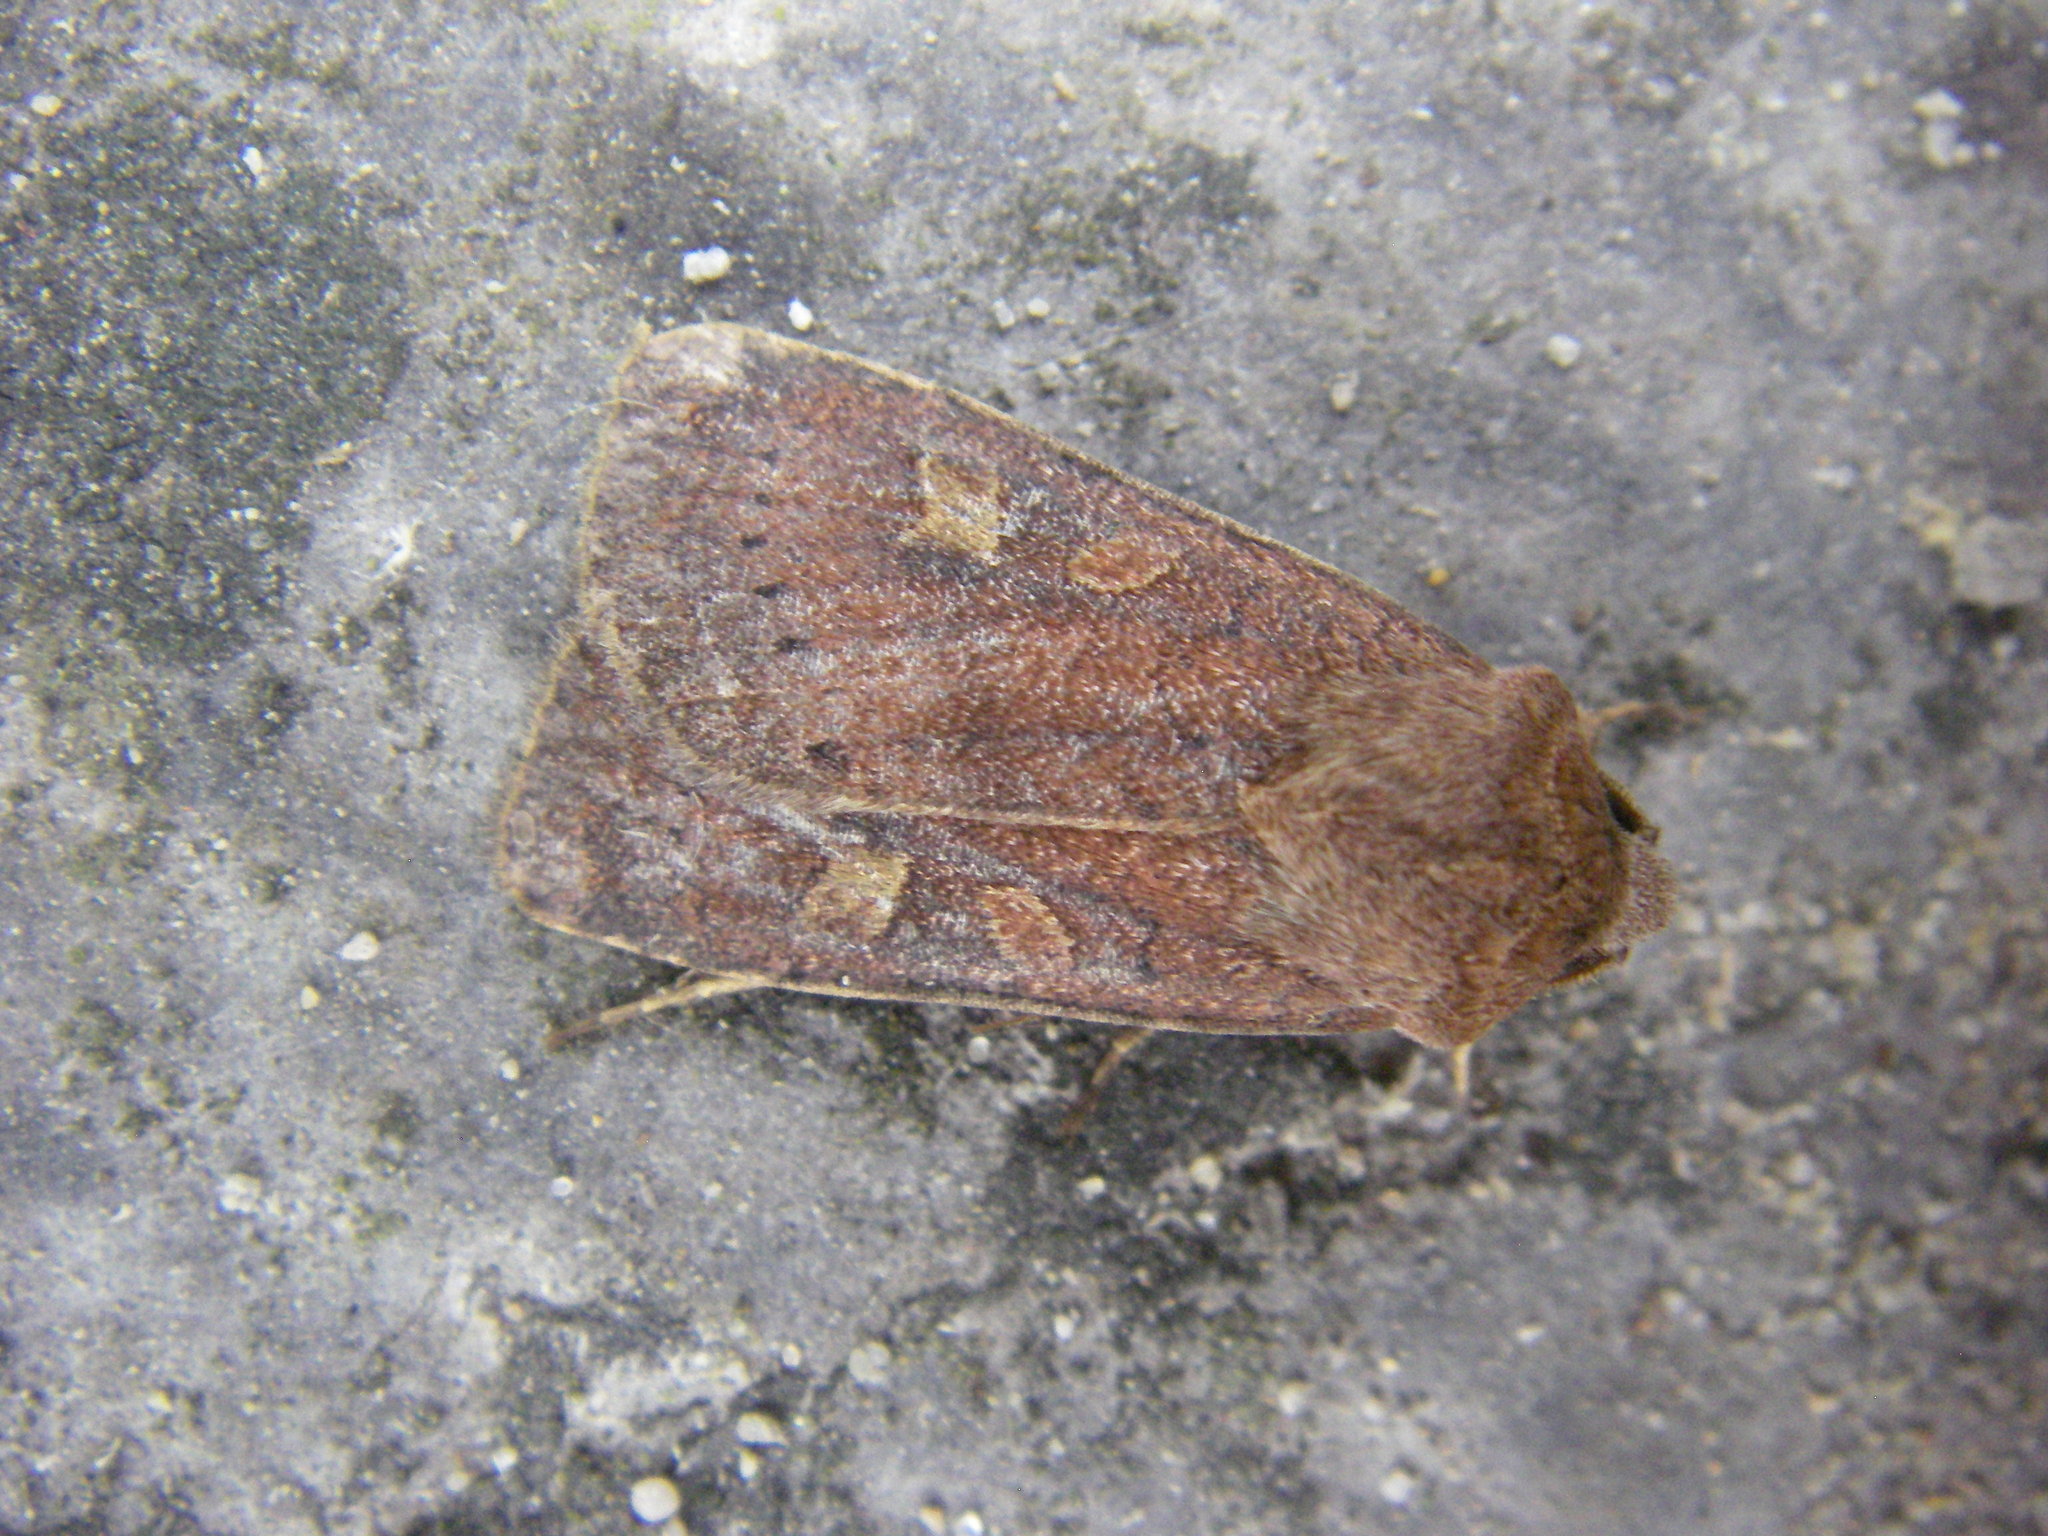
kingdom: Animalia
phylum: Arthropoda
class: Insecta
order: Lepidoptera
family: Noctuidae
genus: Xestia
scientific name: Xestia xanthographa
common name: Square-spot rustic
